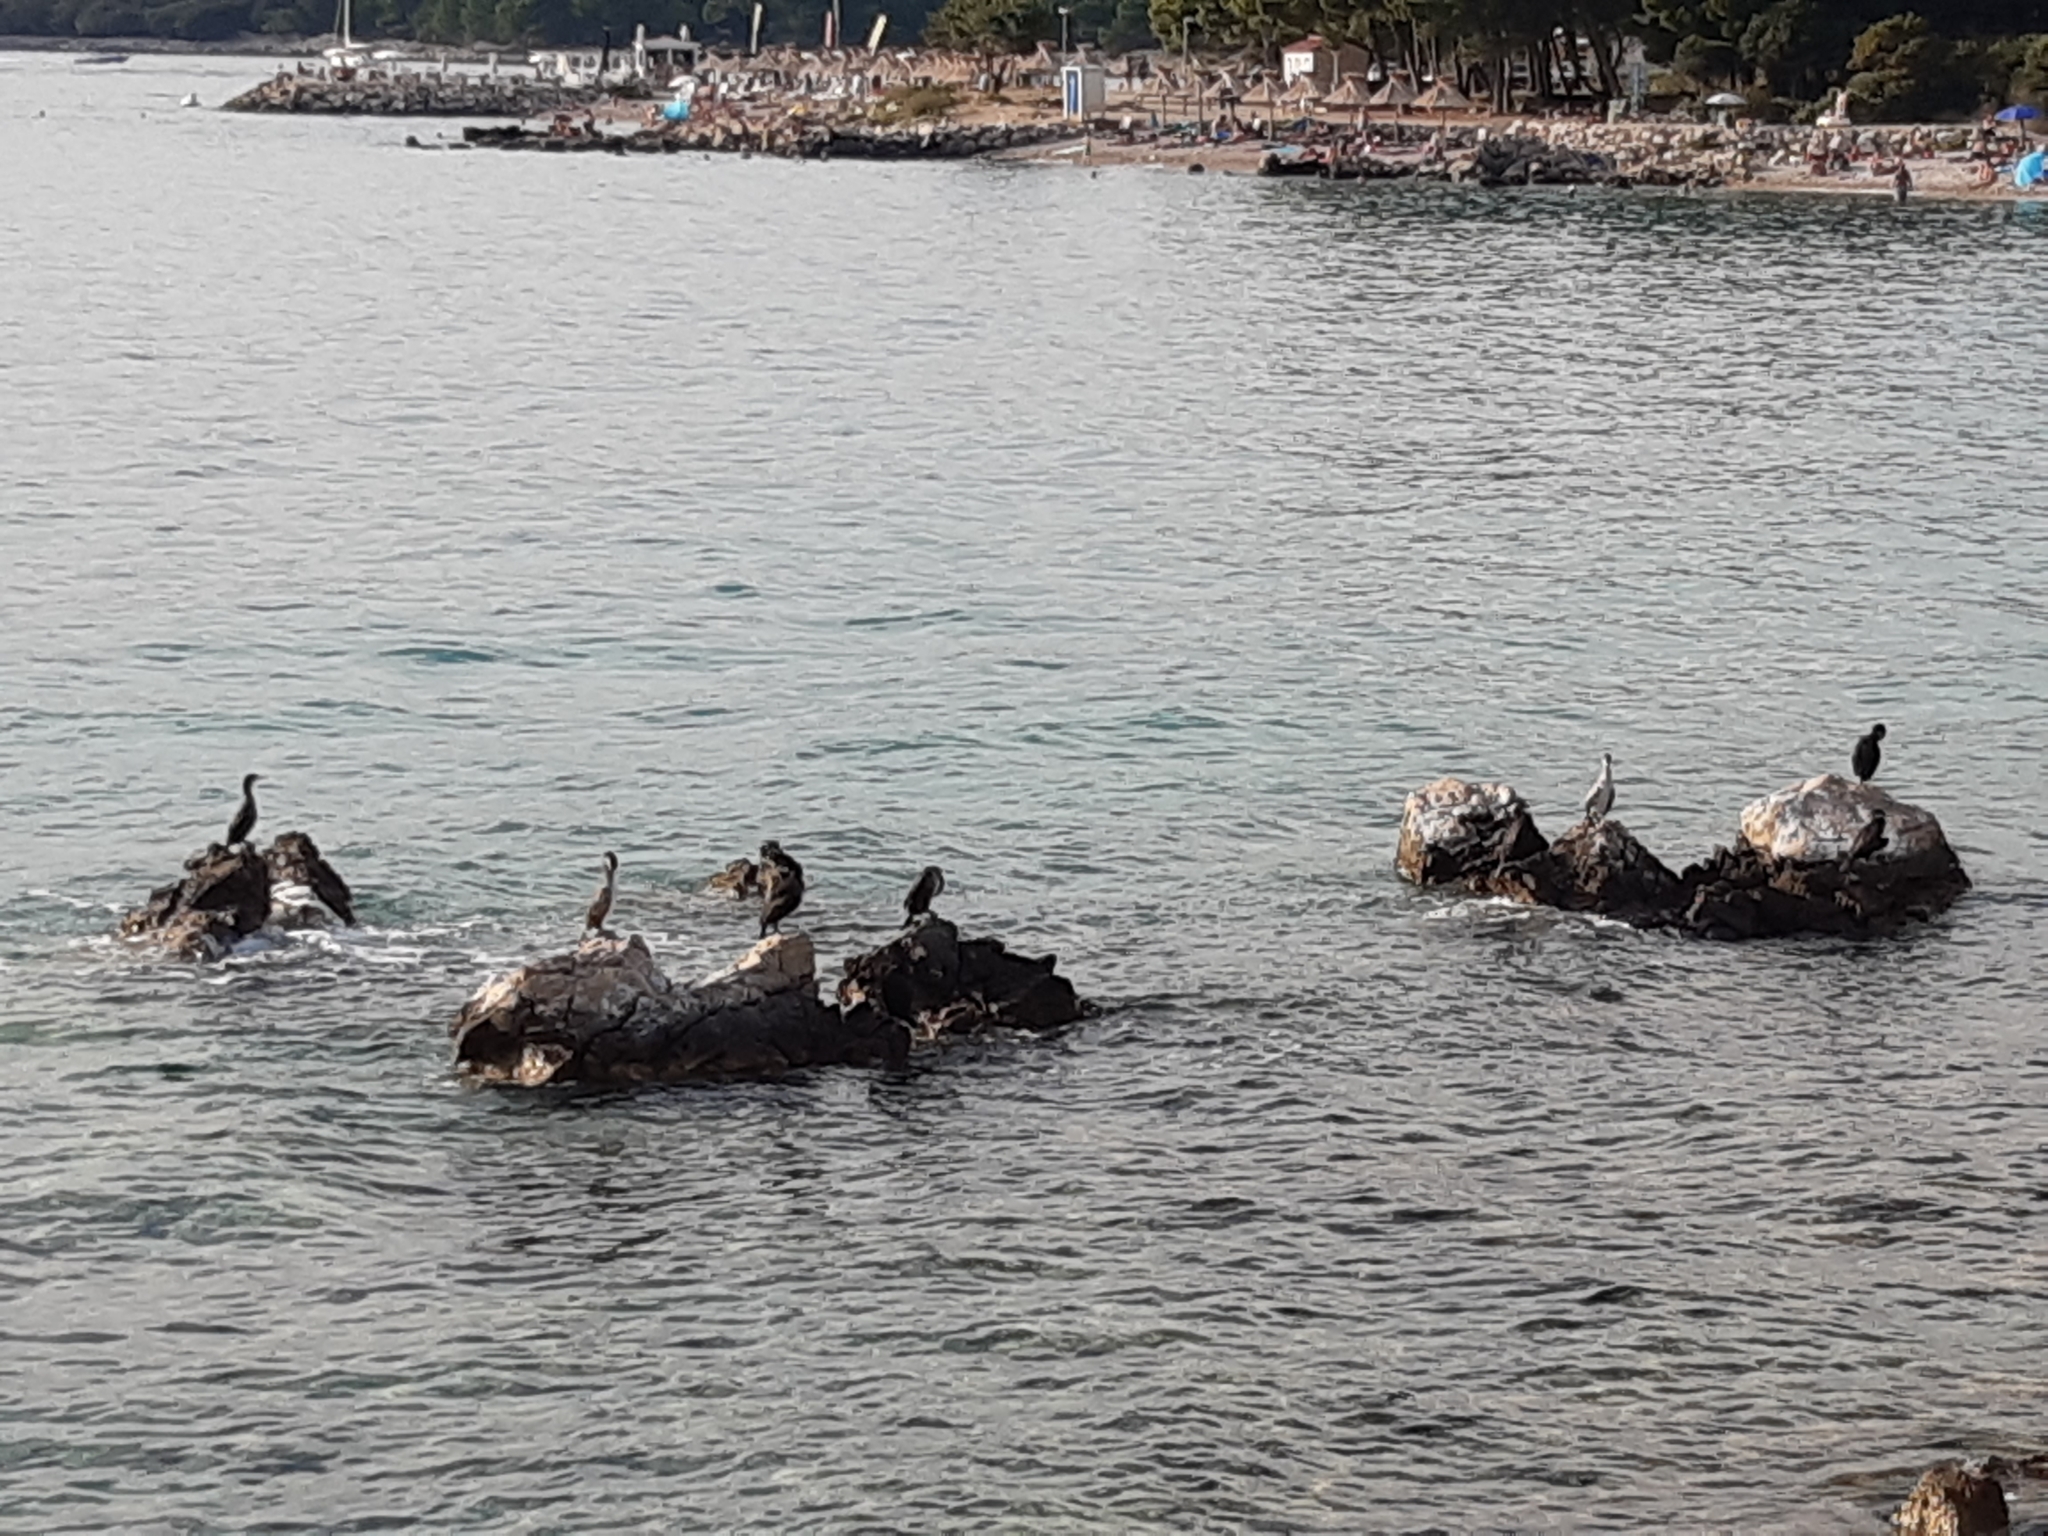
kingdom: Animalia
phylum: Chordata
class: Aves
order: Suliformes
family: Phalacrocoracidae
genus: Phalacrocorax
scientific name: Phalacrocorax aristotelis
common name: European shag
